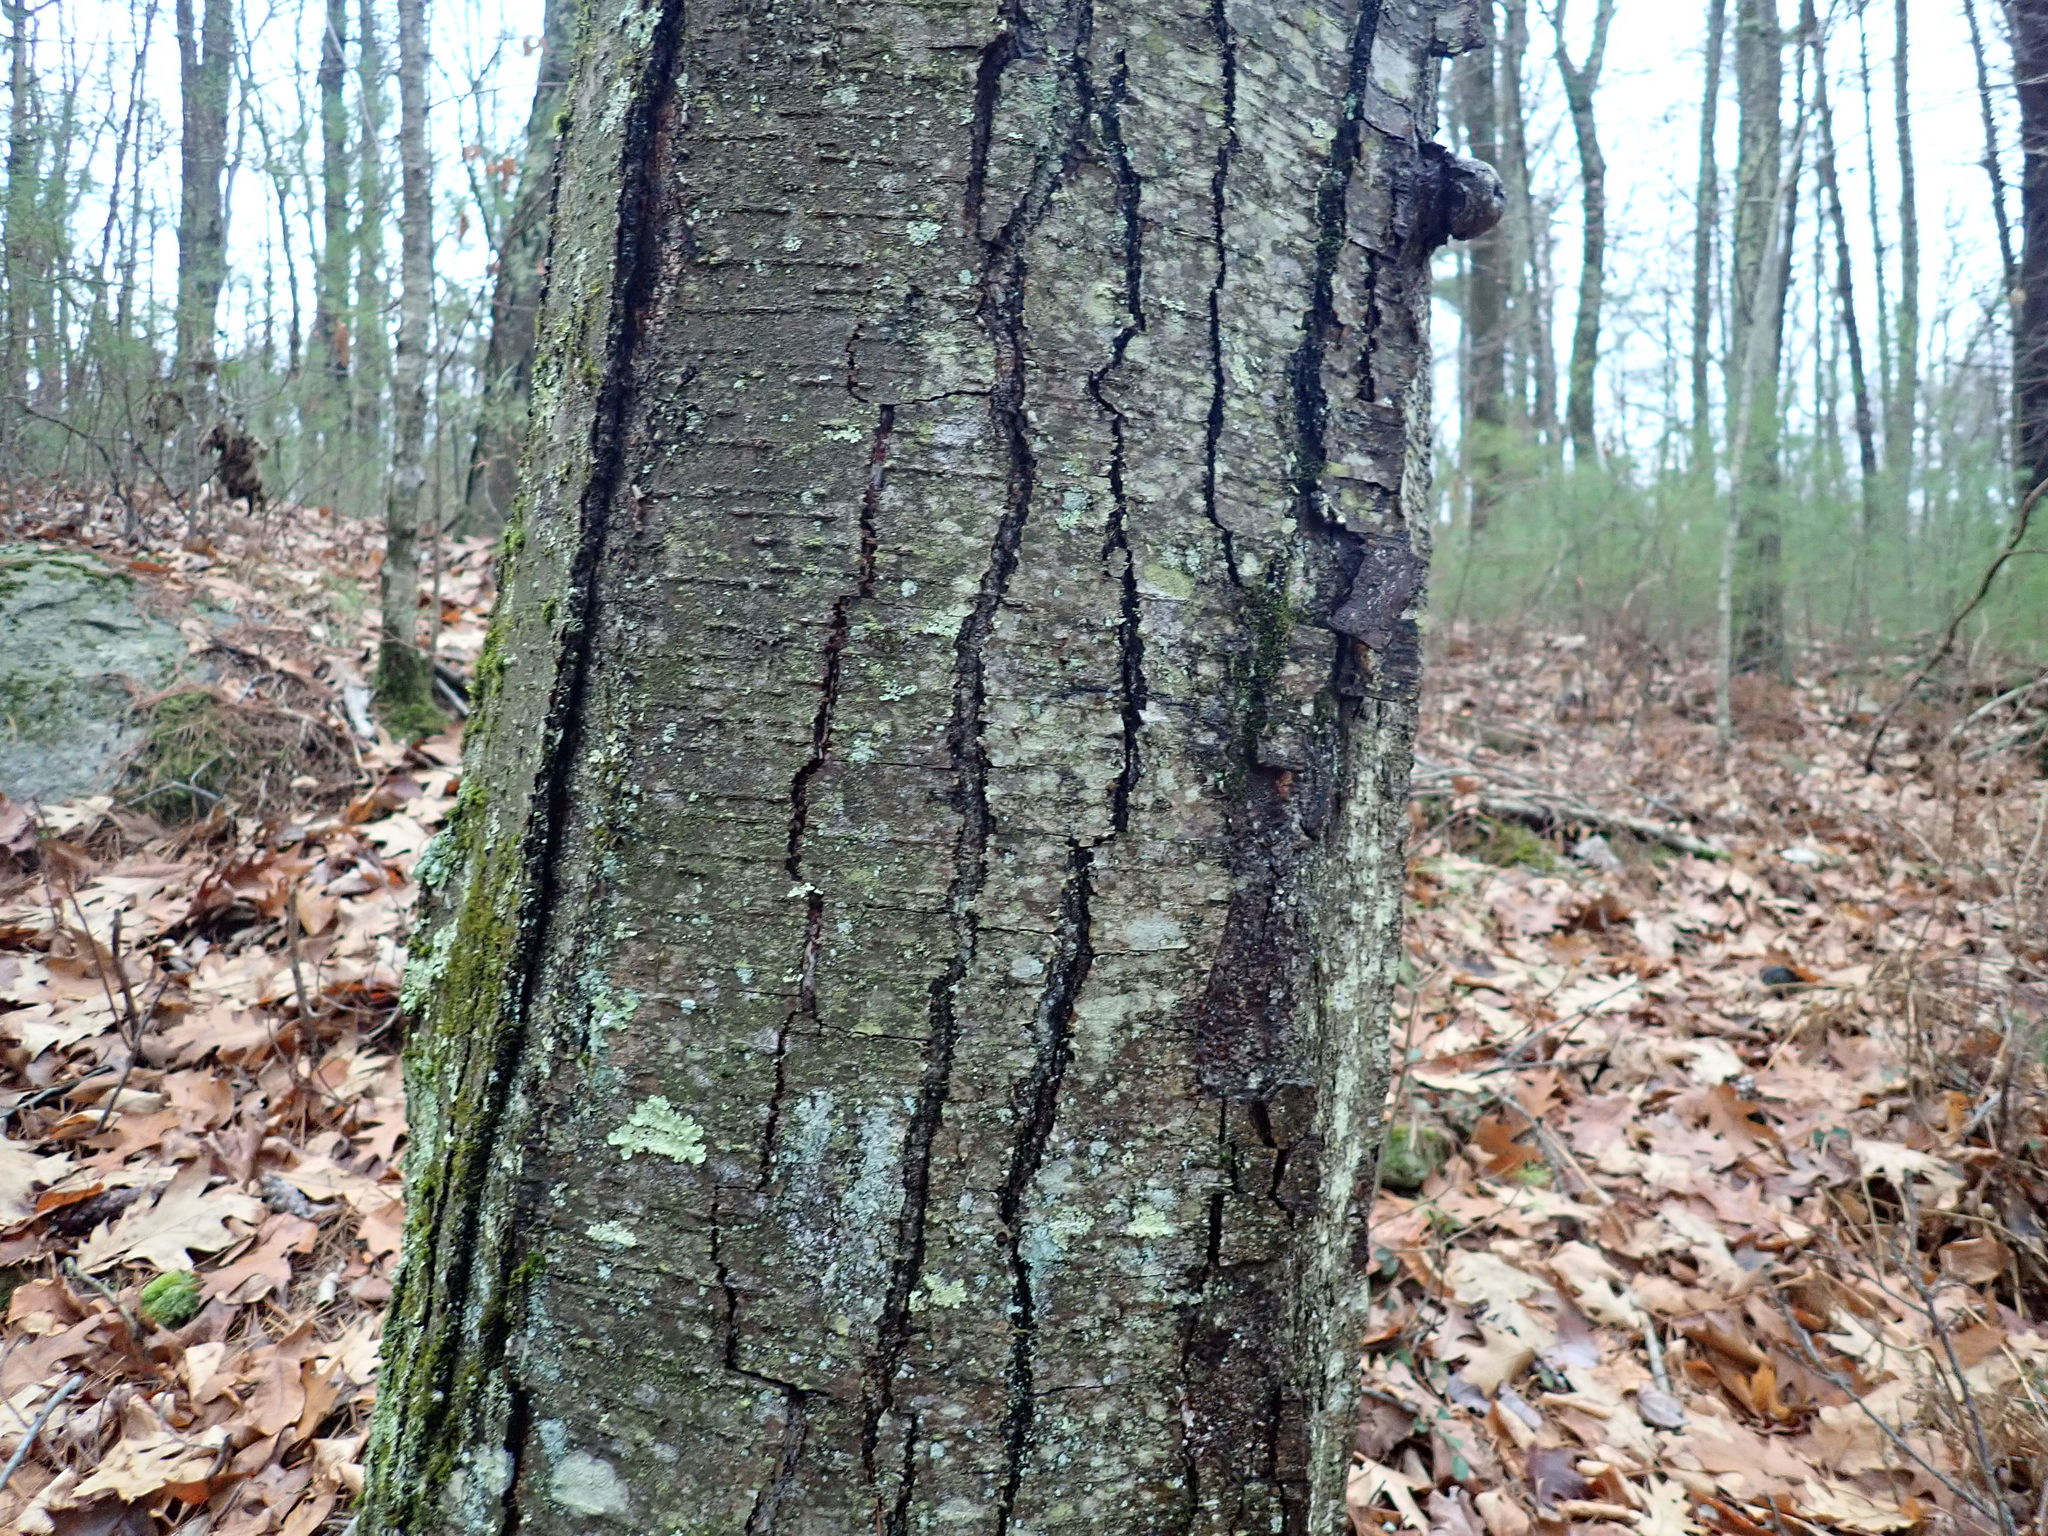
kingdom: Plantae
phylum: Tracheophyta
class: Magnoliopsida
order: Fagales
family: Betulaceae
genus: Betula
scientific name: Betula lenta
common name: Black birch
